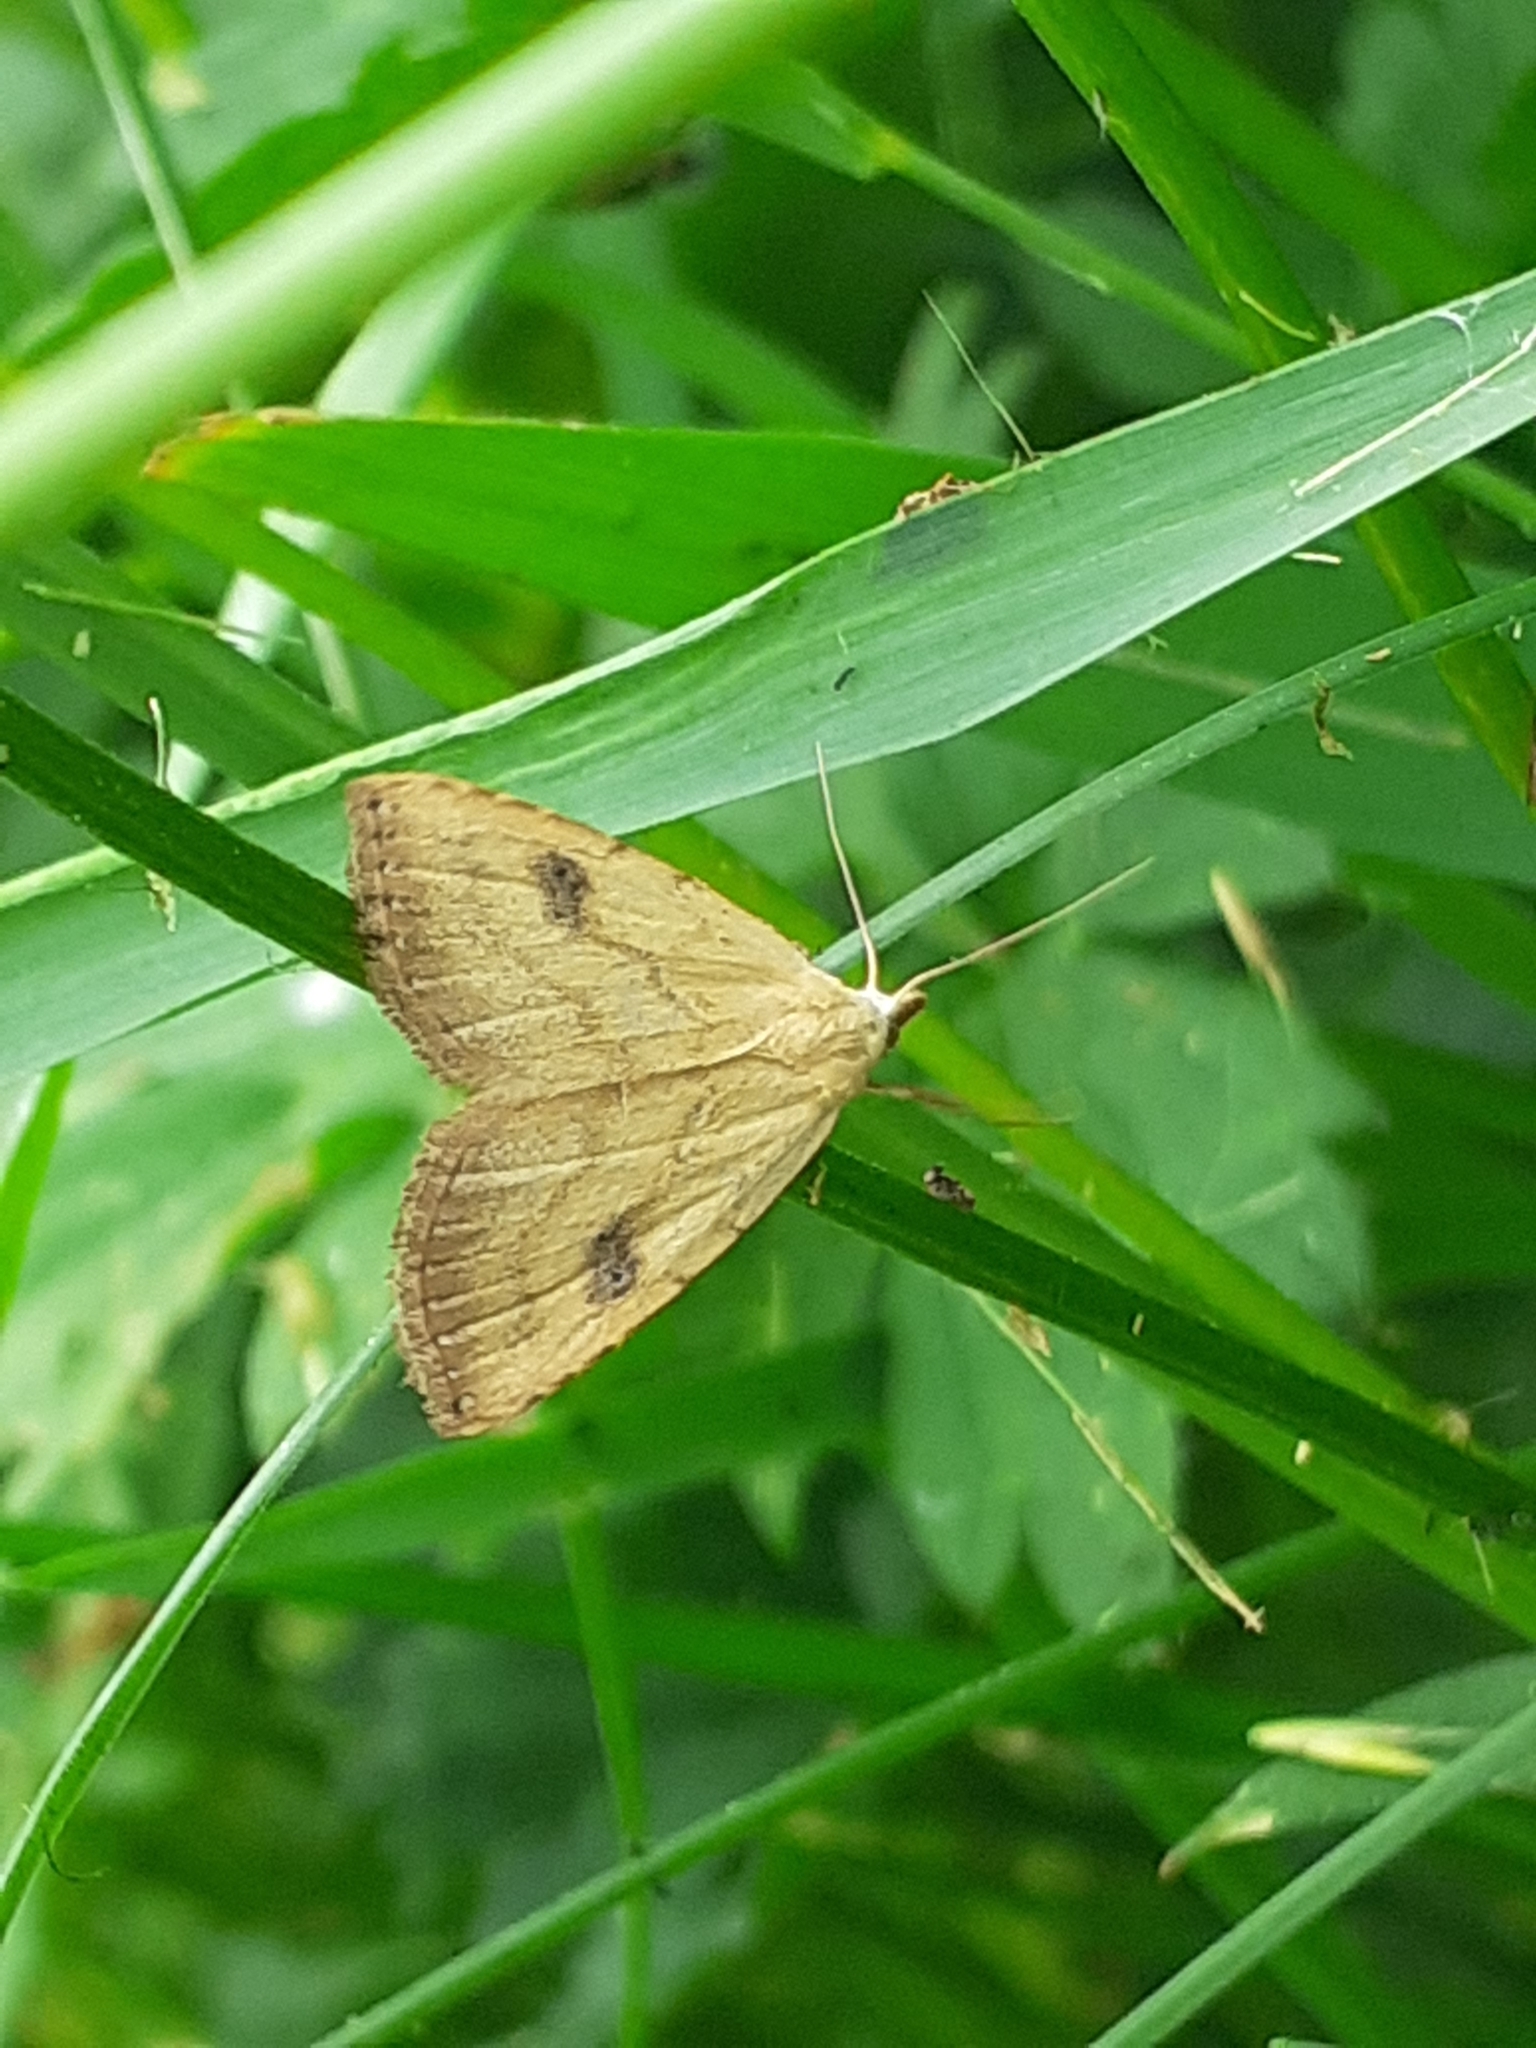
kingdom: Animalia
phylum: Arthropoda
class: Insecta
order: Lepidoptera
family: Erebidae
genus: Rivula
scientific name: Rivula sericealis
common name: Straw dot
